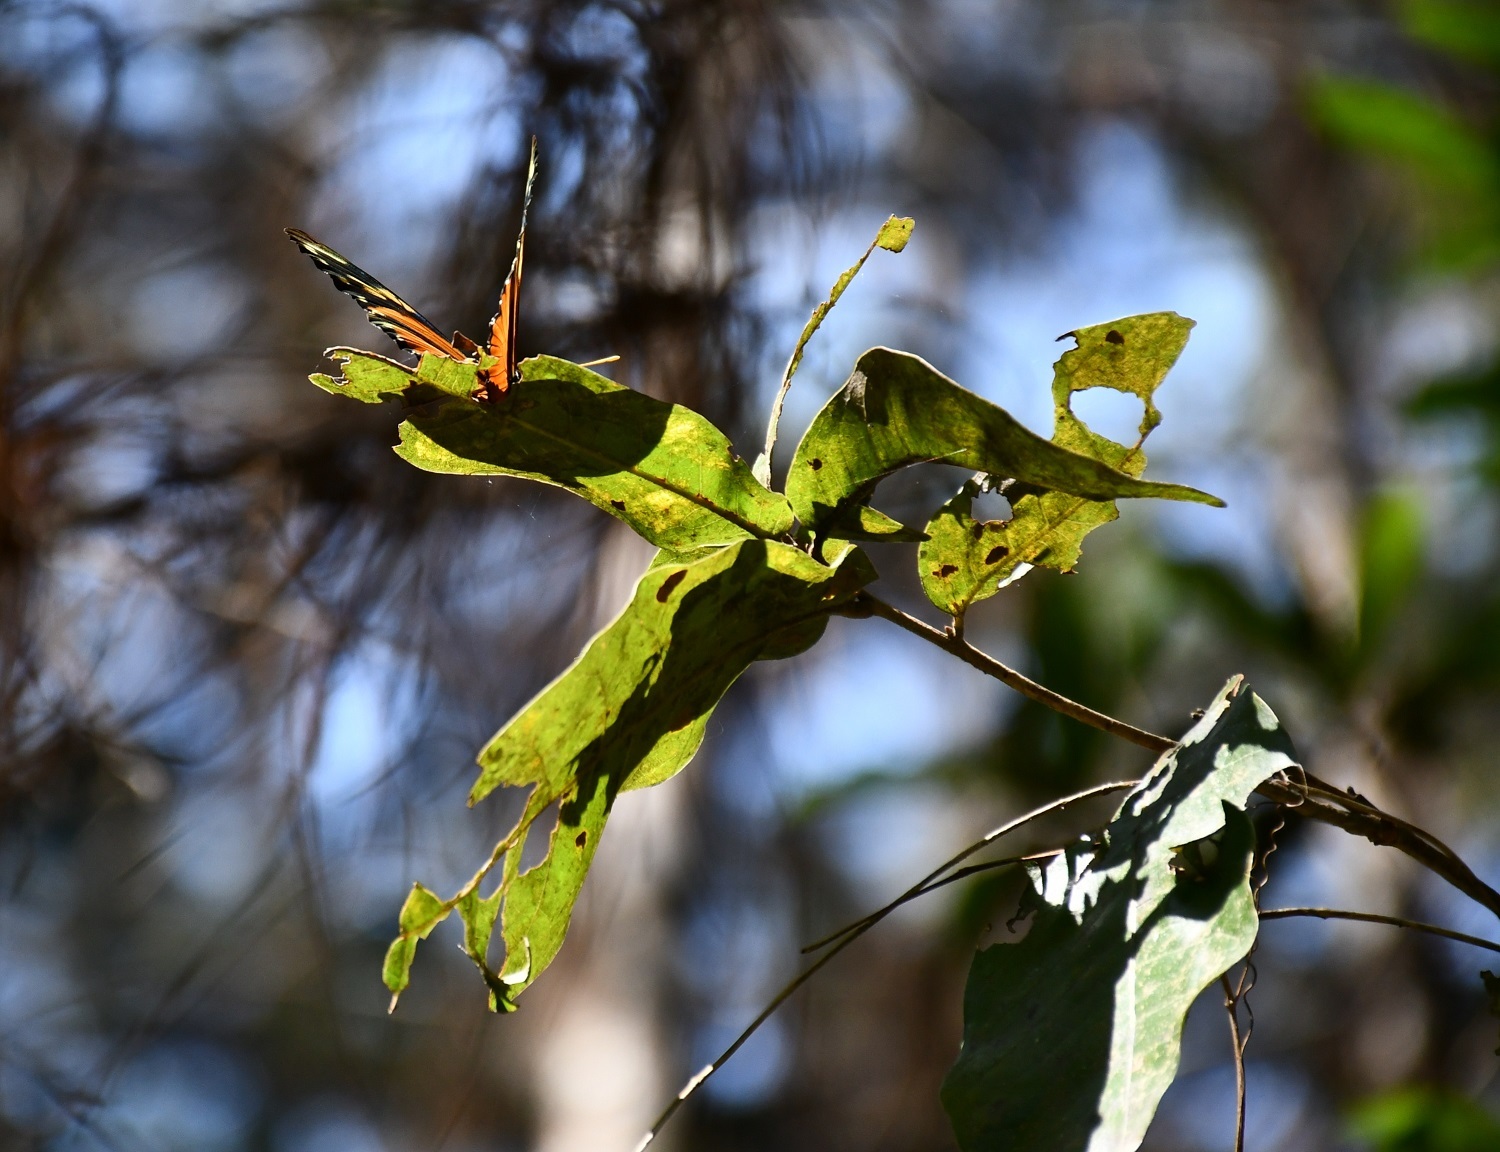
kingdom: Animalia
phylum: Arthropoda
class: Insecta
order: Lepidoptera
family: Nymphalidae
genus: Eresia
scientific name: Eresia phillyra
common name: Longwing crescent
